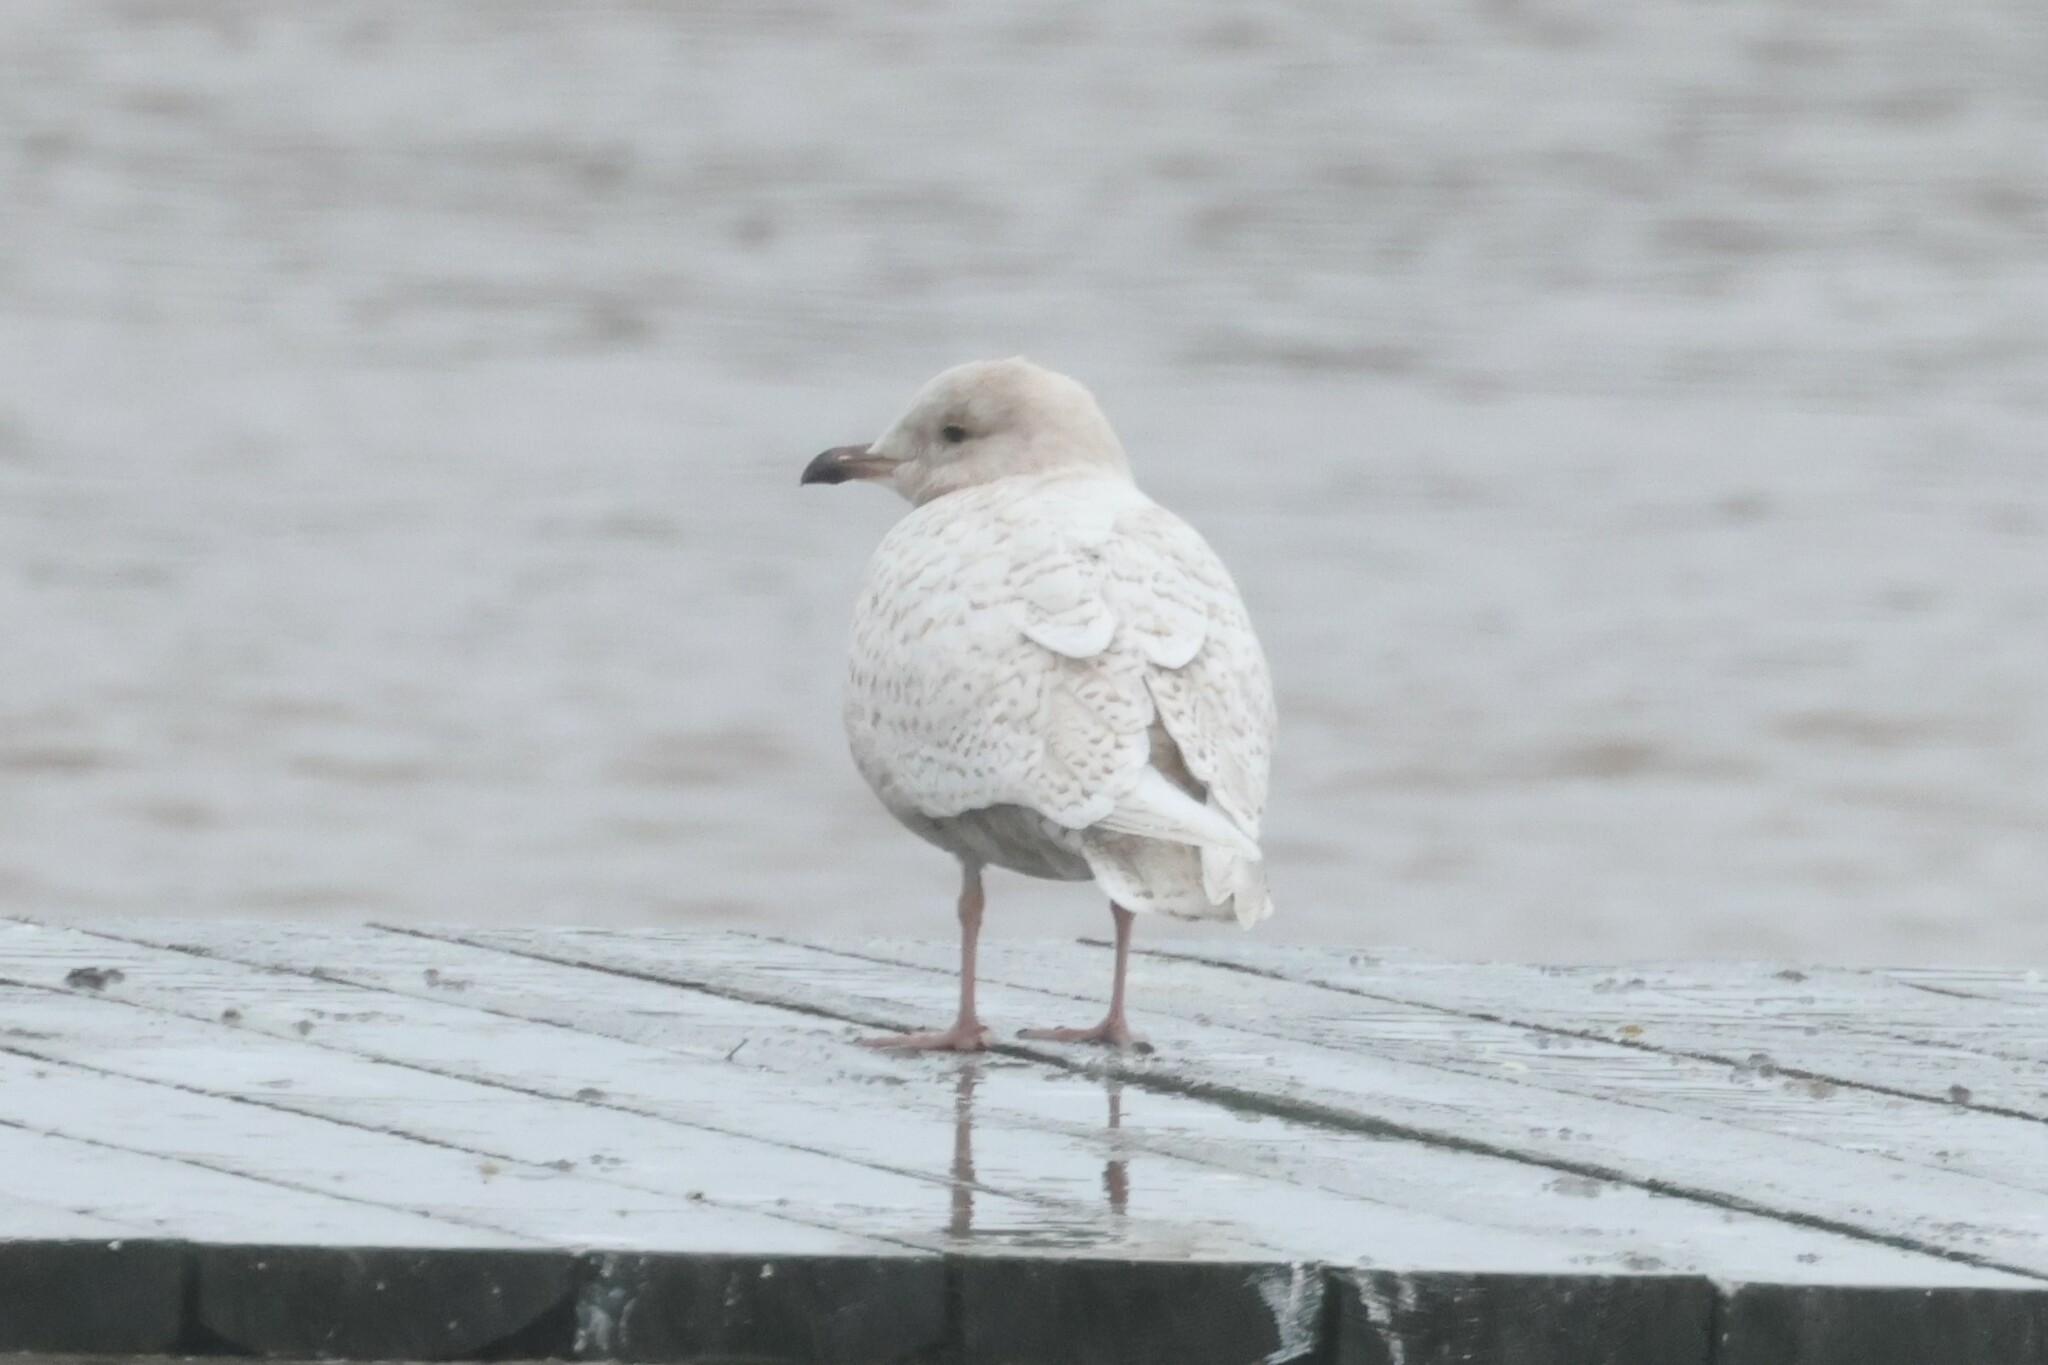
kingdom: Animalia
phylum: Chordata
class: Aves
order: Charadriiformes
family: Laridae
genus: Larus
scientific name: Larus glaucoides
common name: Iceland gull
